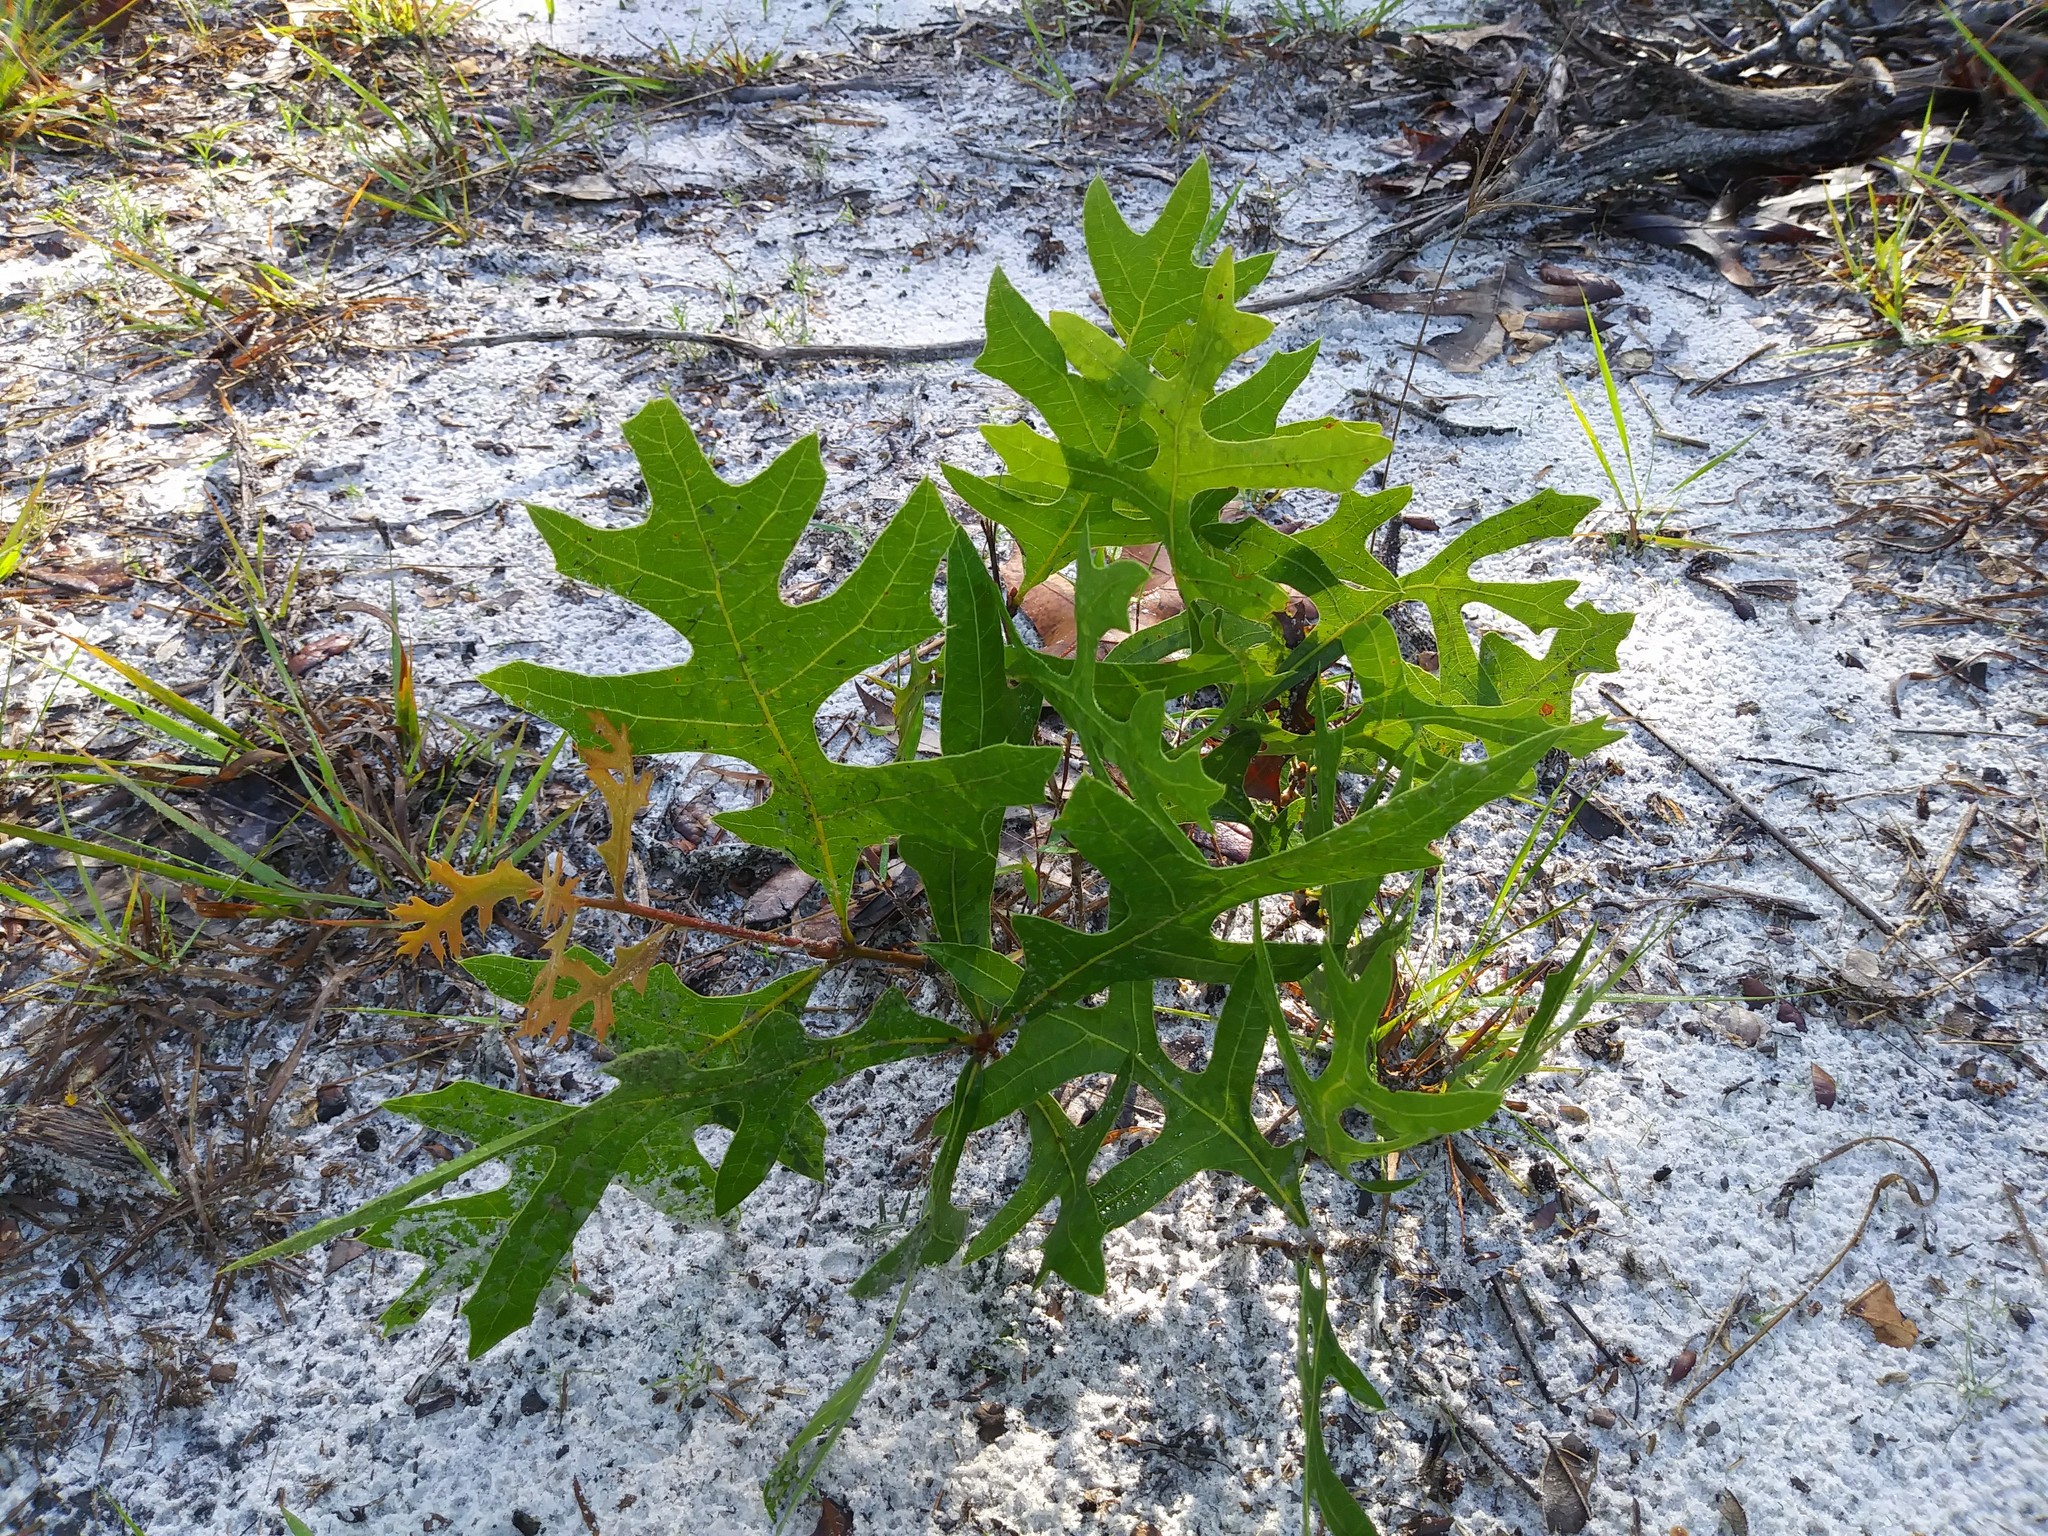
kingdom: Plantae
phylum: Tracheophyta
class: Magnoliopsida
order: Fagales
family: Fagaceae
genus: Quercus
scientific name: Quercus laevis
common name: Turkey oak
